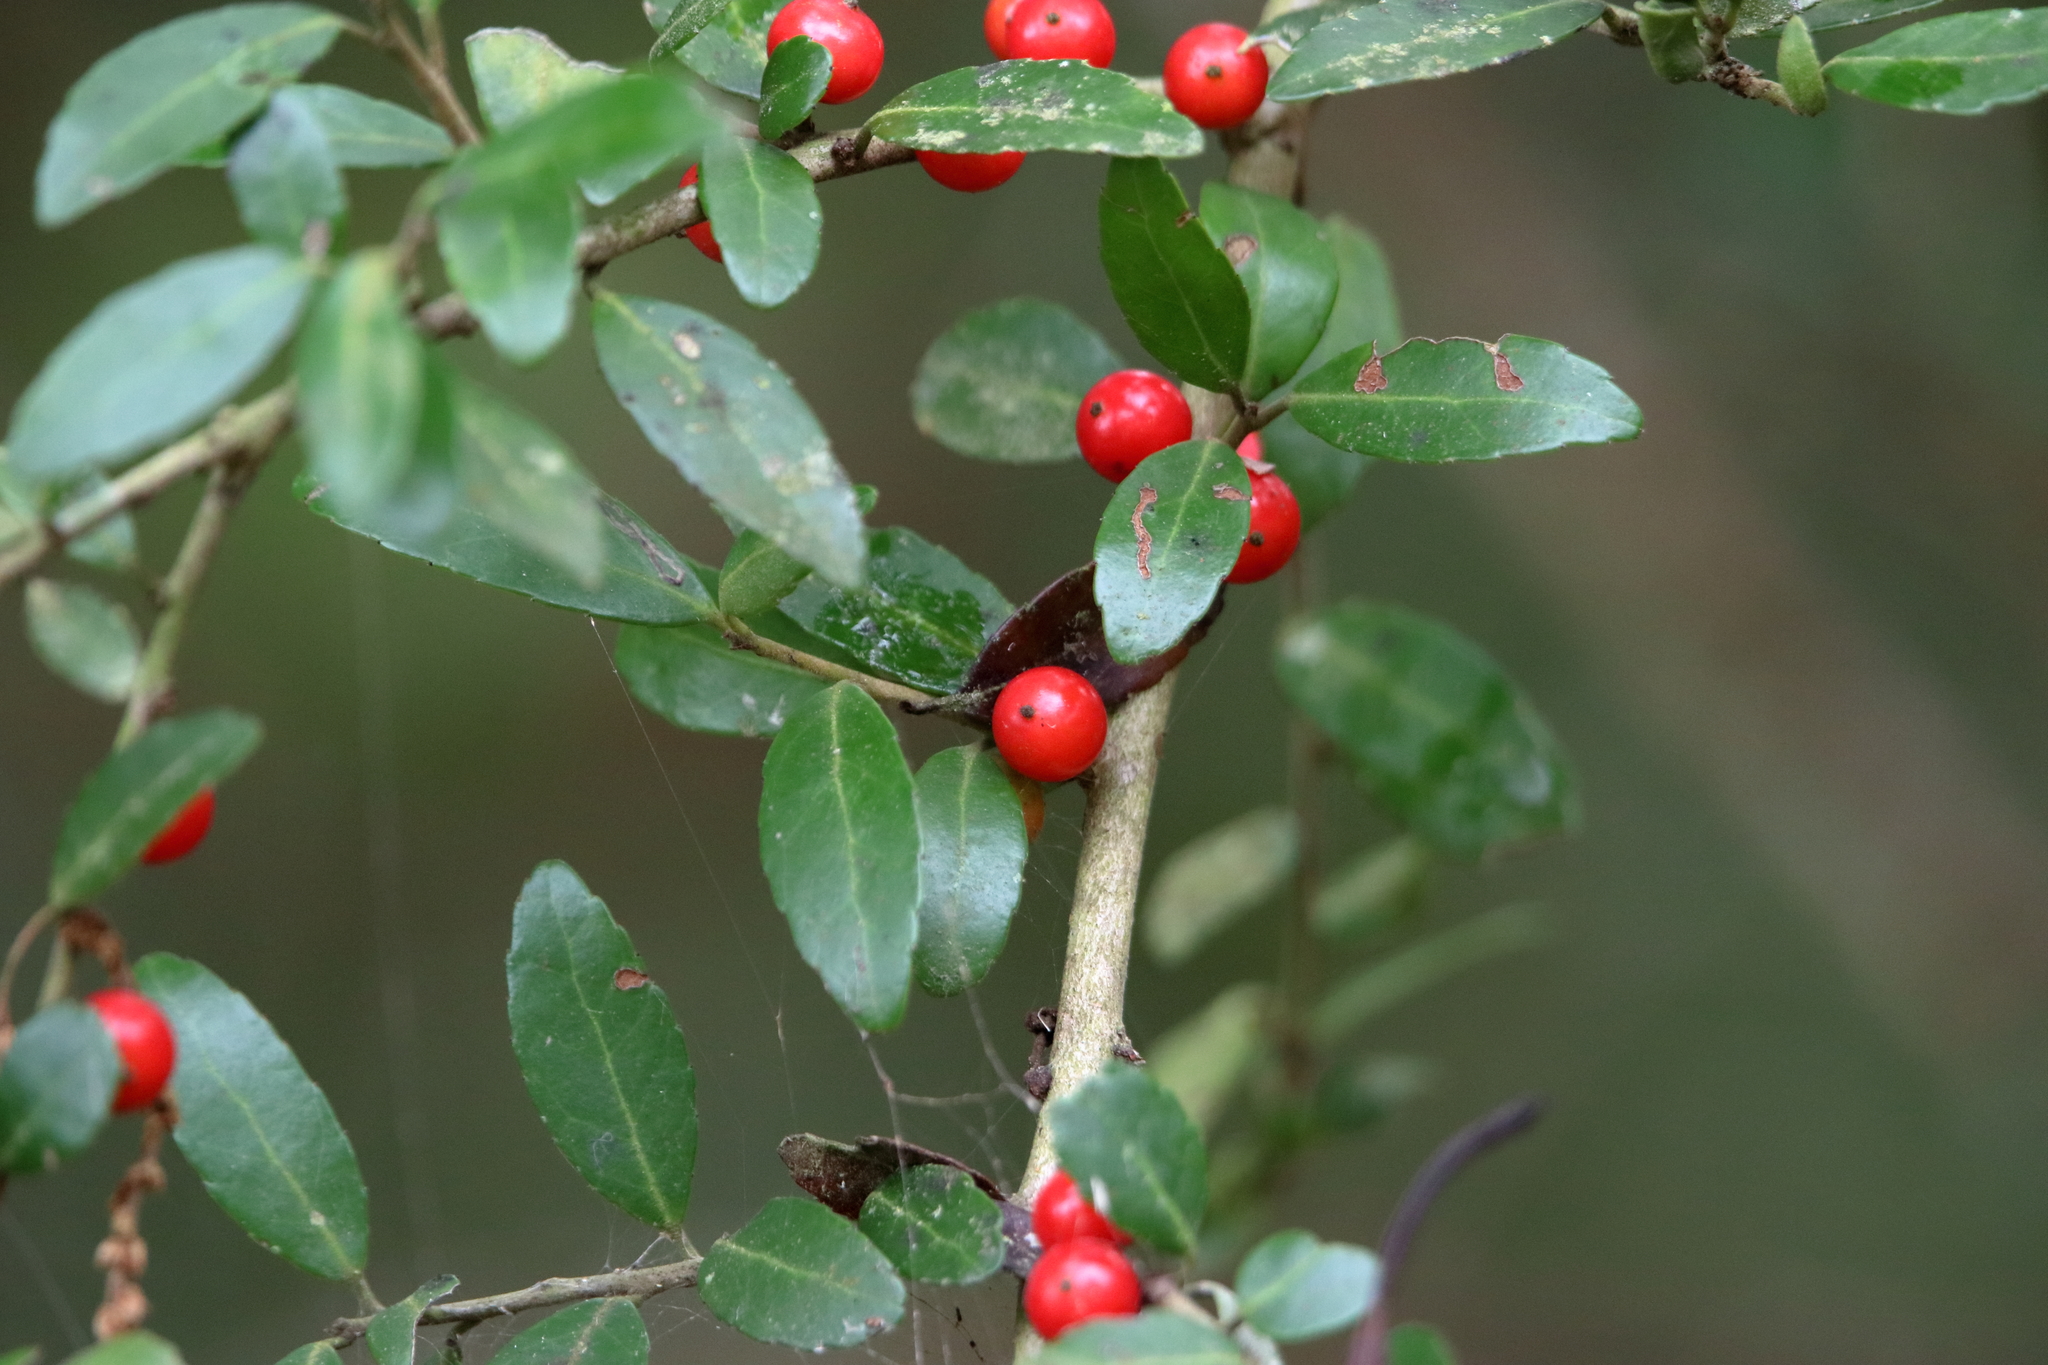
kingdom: Plantae
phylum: Tracheophyta
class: Magnoliopsida
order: Aquifoliales
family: Aquifoliaceae
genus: Ilex
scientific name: Ilex vomitoria
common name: Yaupon holly
